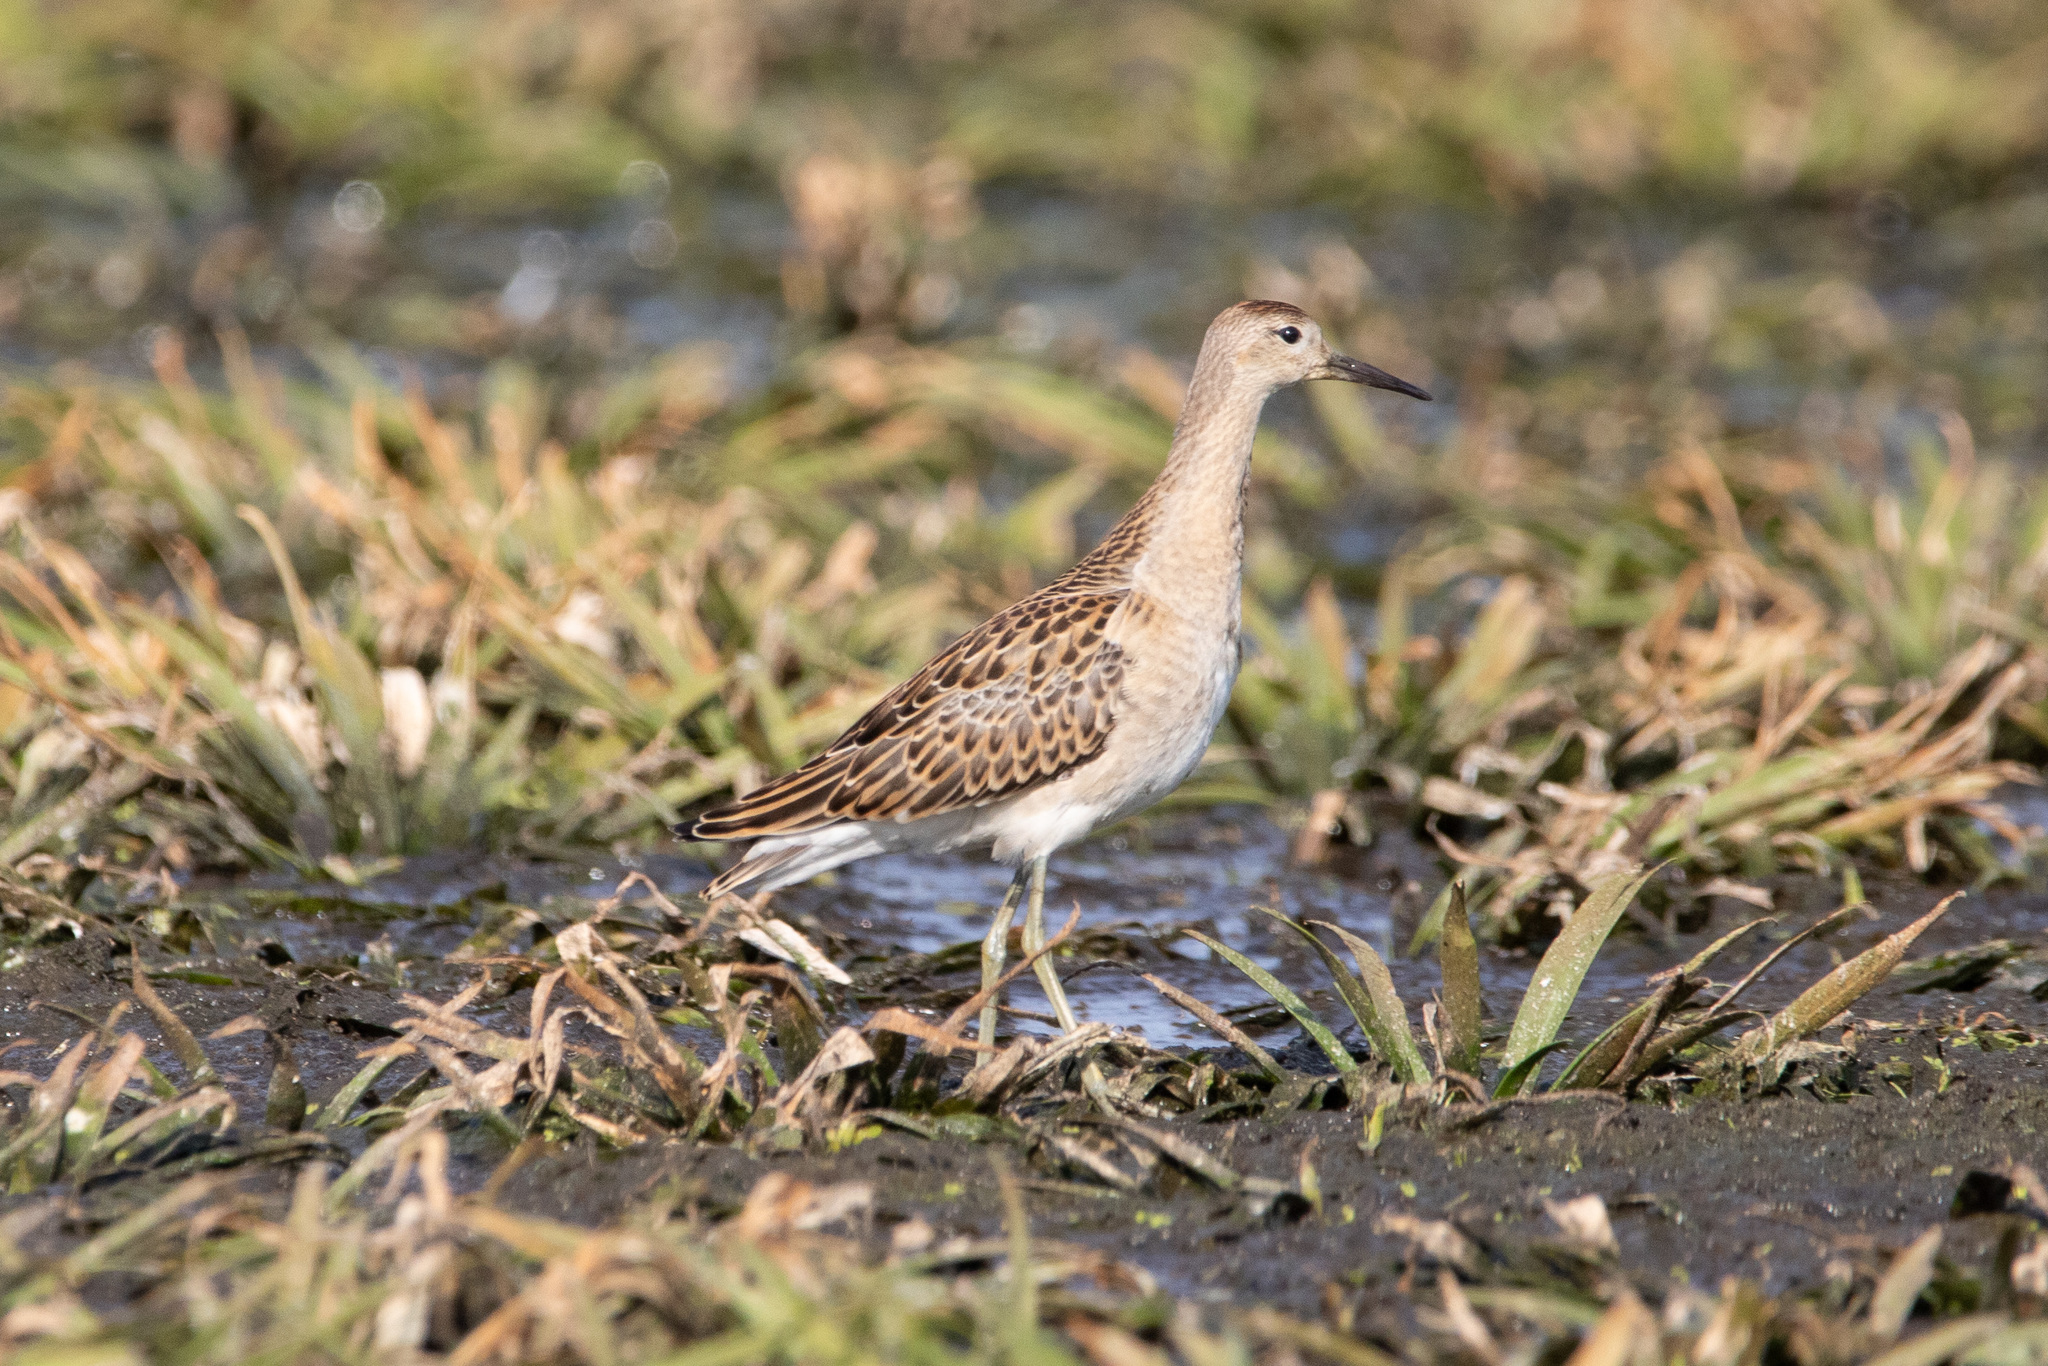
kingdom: Animalia
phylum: Chordata
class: Aves
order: Charadriiformes
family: Scolopacidae
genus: Calidris
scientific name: Calidris pugnax
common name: Ruff
